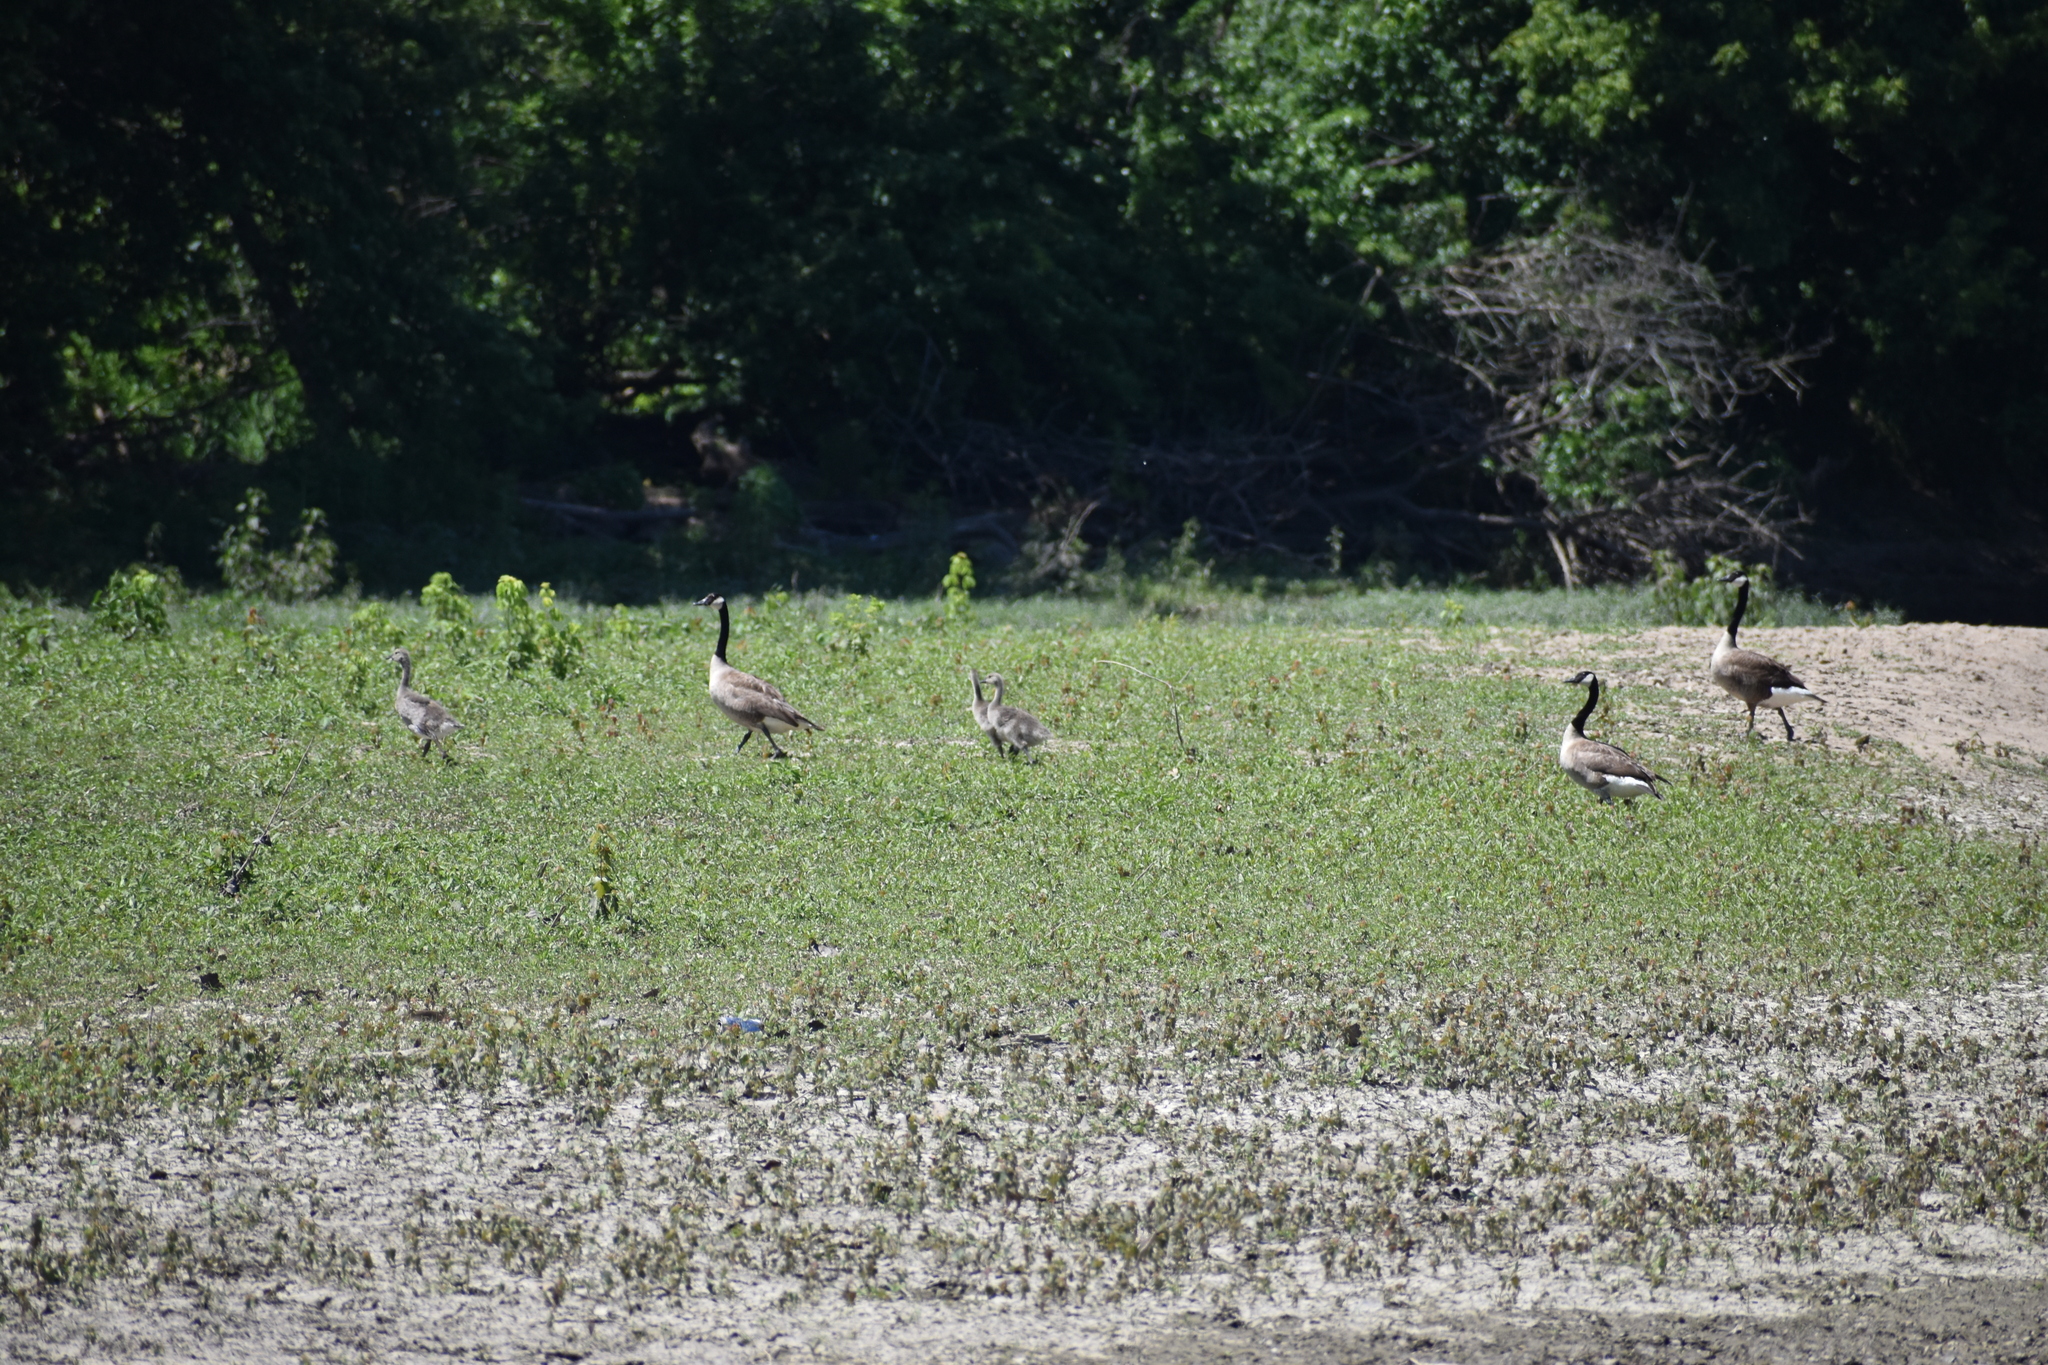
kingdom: Animalia
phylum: Chordata
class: Aves
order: Anseriformes
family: Anatidae
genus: Branta
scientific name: Branta canadensis
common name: Canada goose
